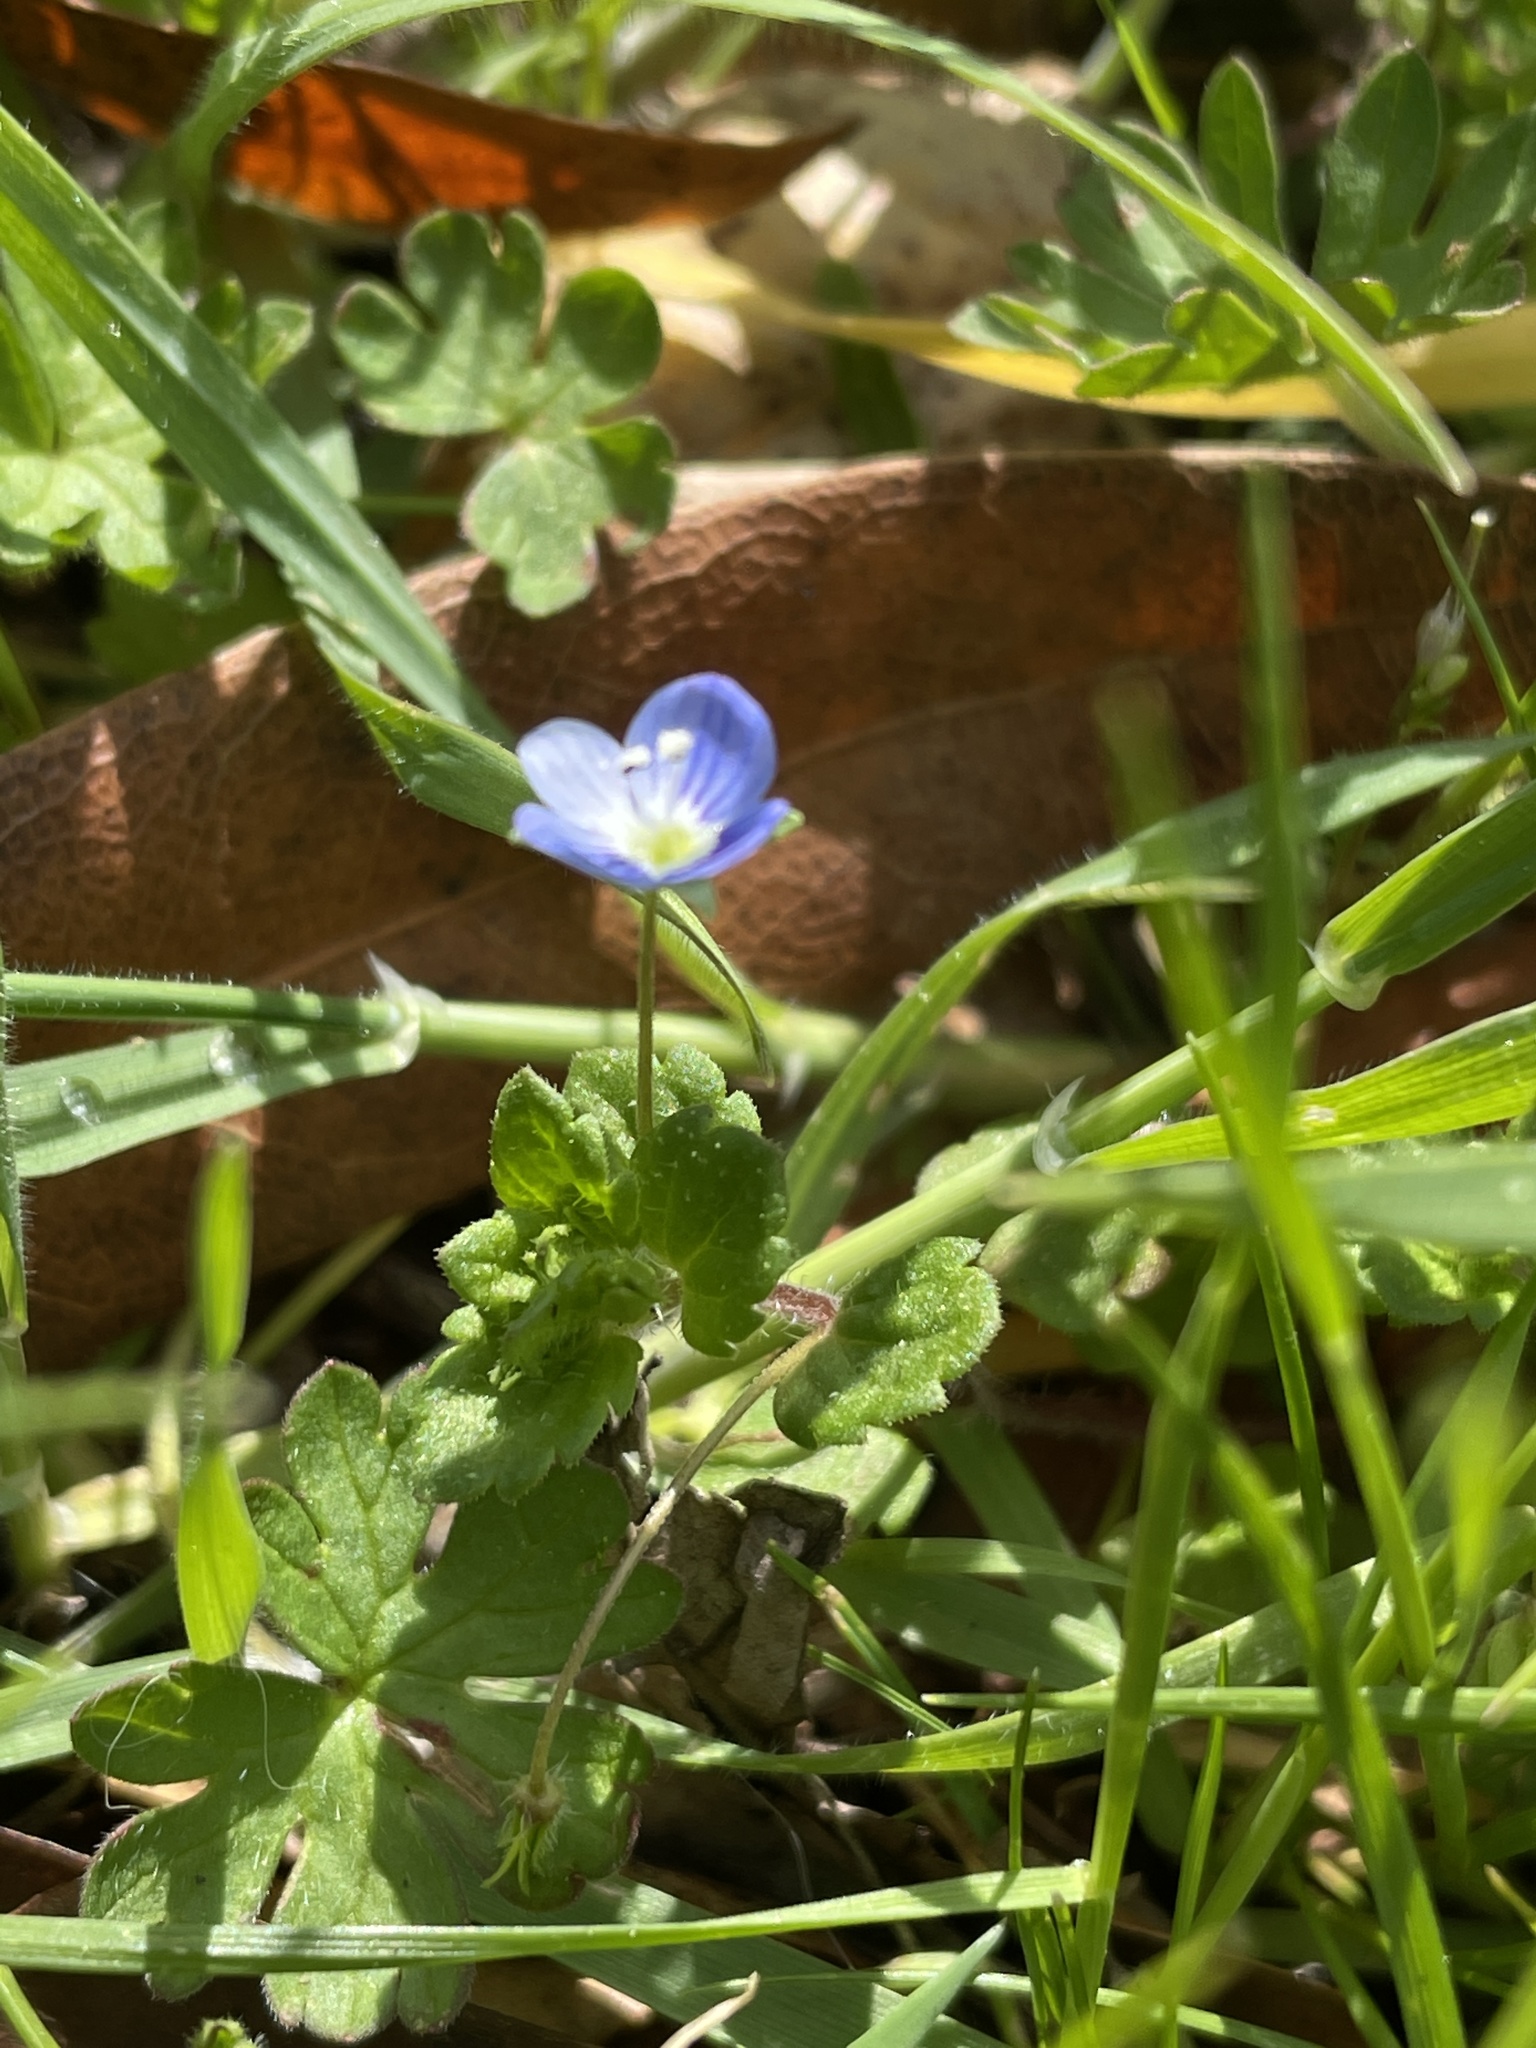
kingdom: Plantae
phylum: Tracheophyta
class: Magnoliopsida
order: Lamiales
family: Plantaginaceae
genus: Veronica
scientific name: Veronica persica
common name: Common field-speedwell
